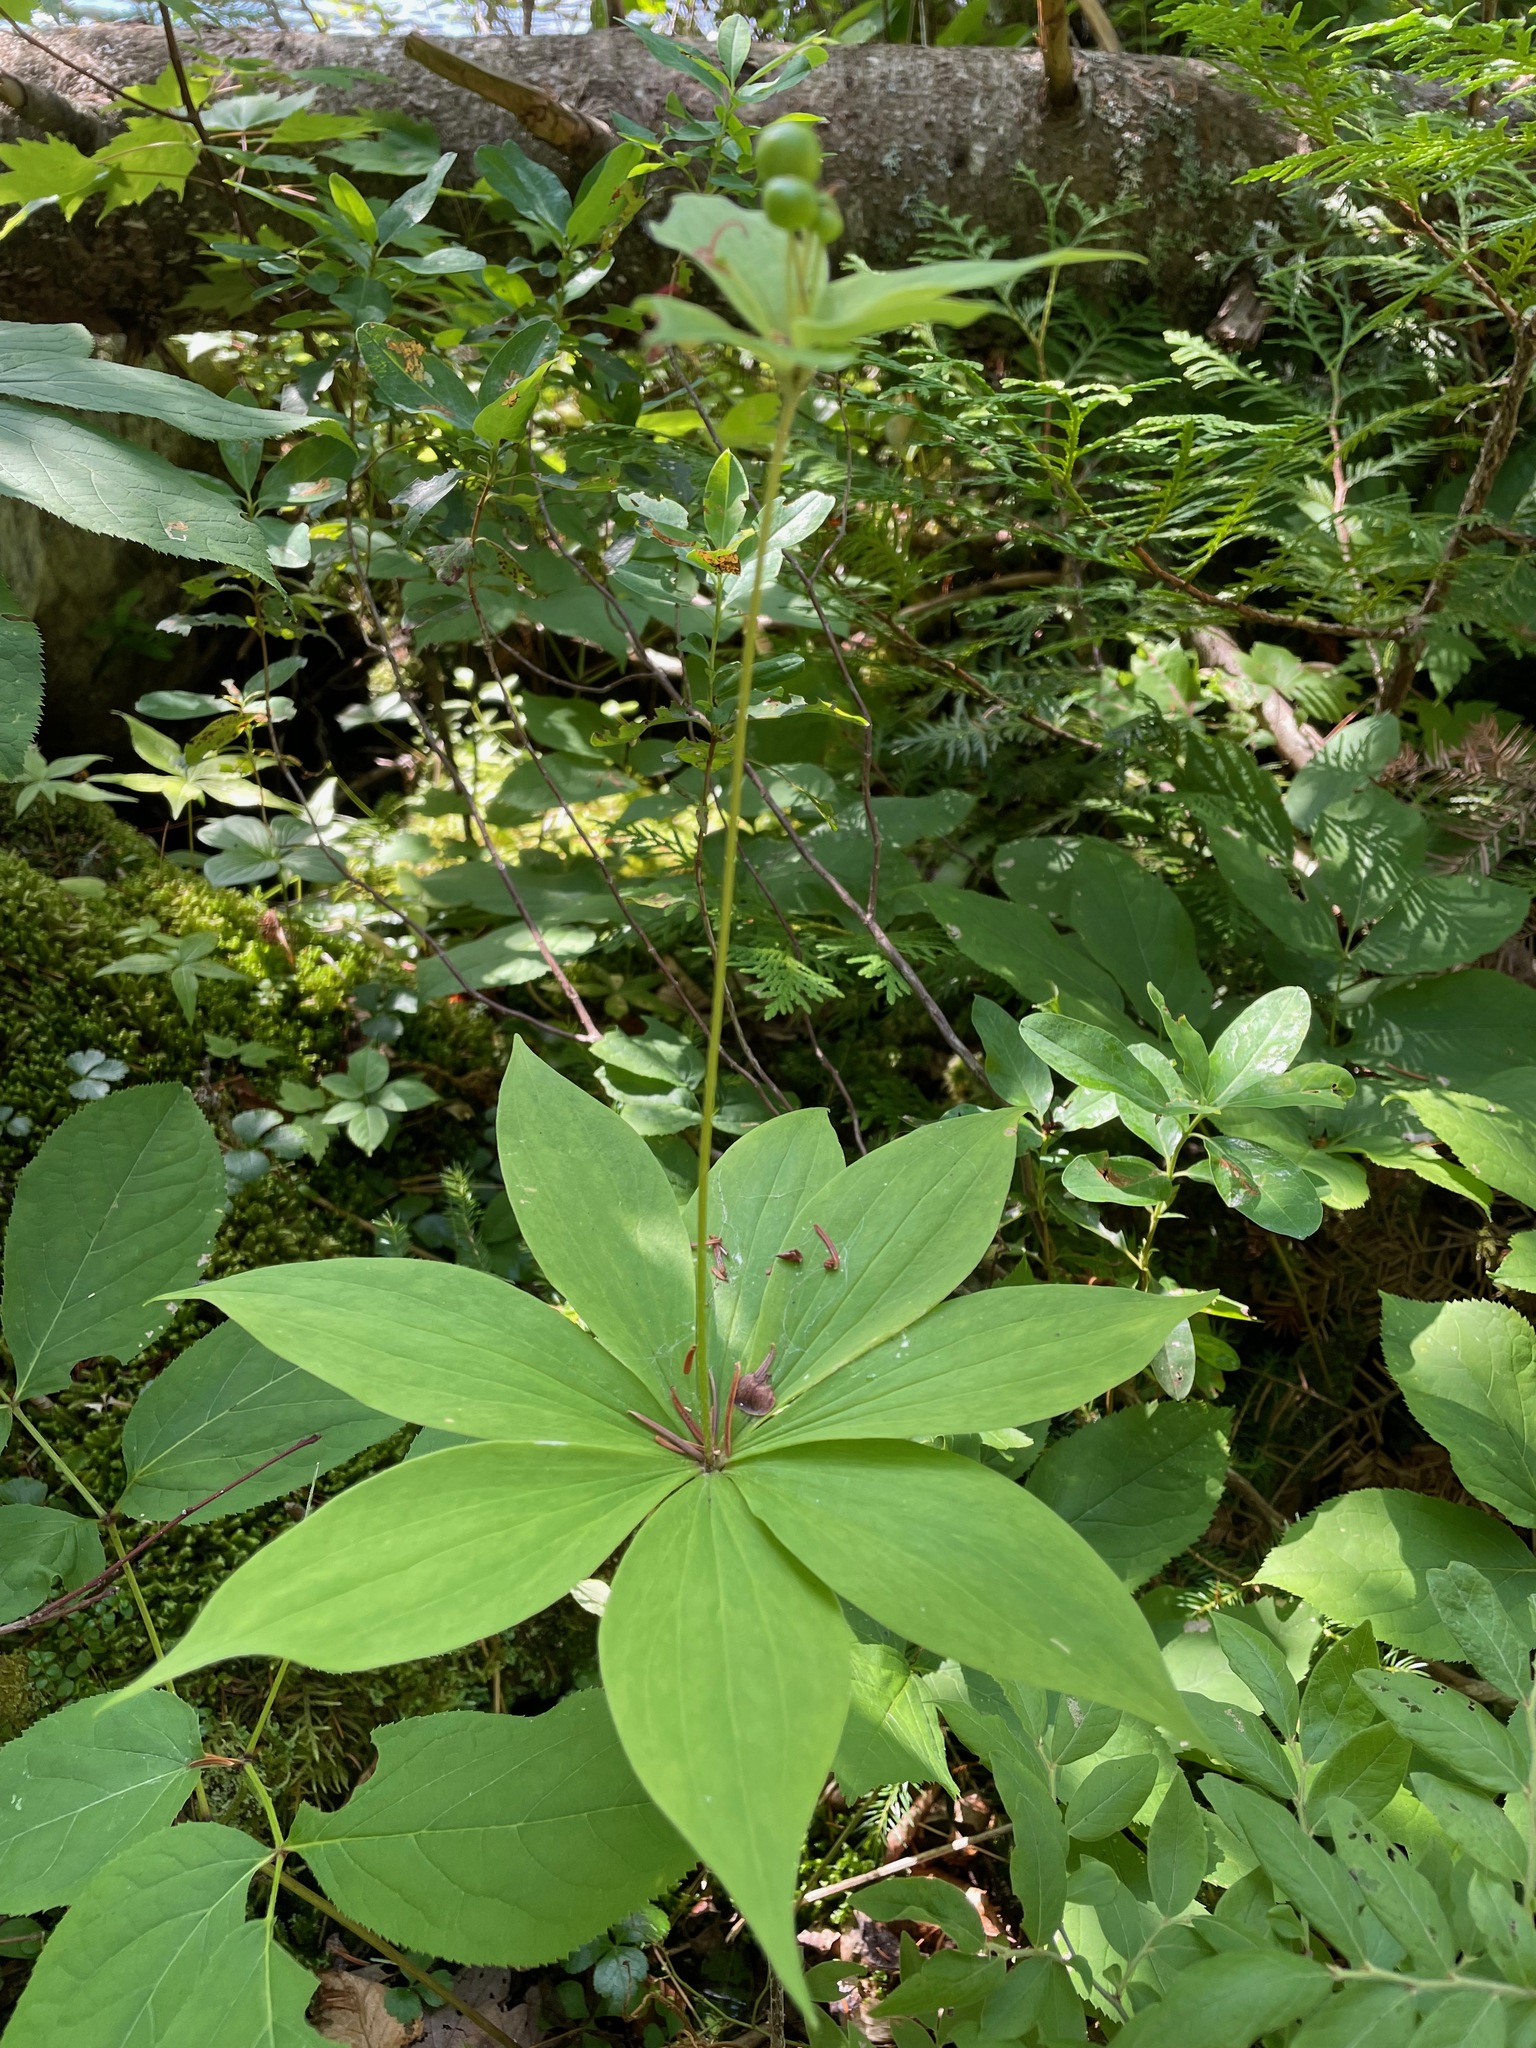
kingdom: Plantae
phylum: Tracheophyta
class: Liliopsida
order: Liliales
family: Liliaceae
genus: Medeola
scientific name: Medeola virginiana
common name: Indian cucumber-root
